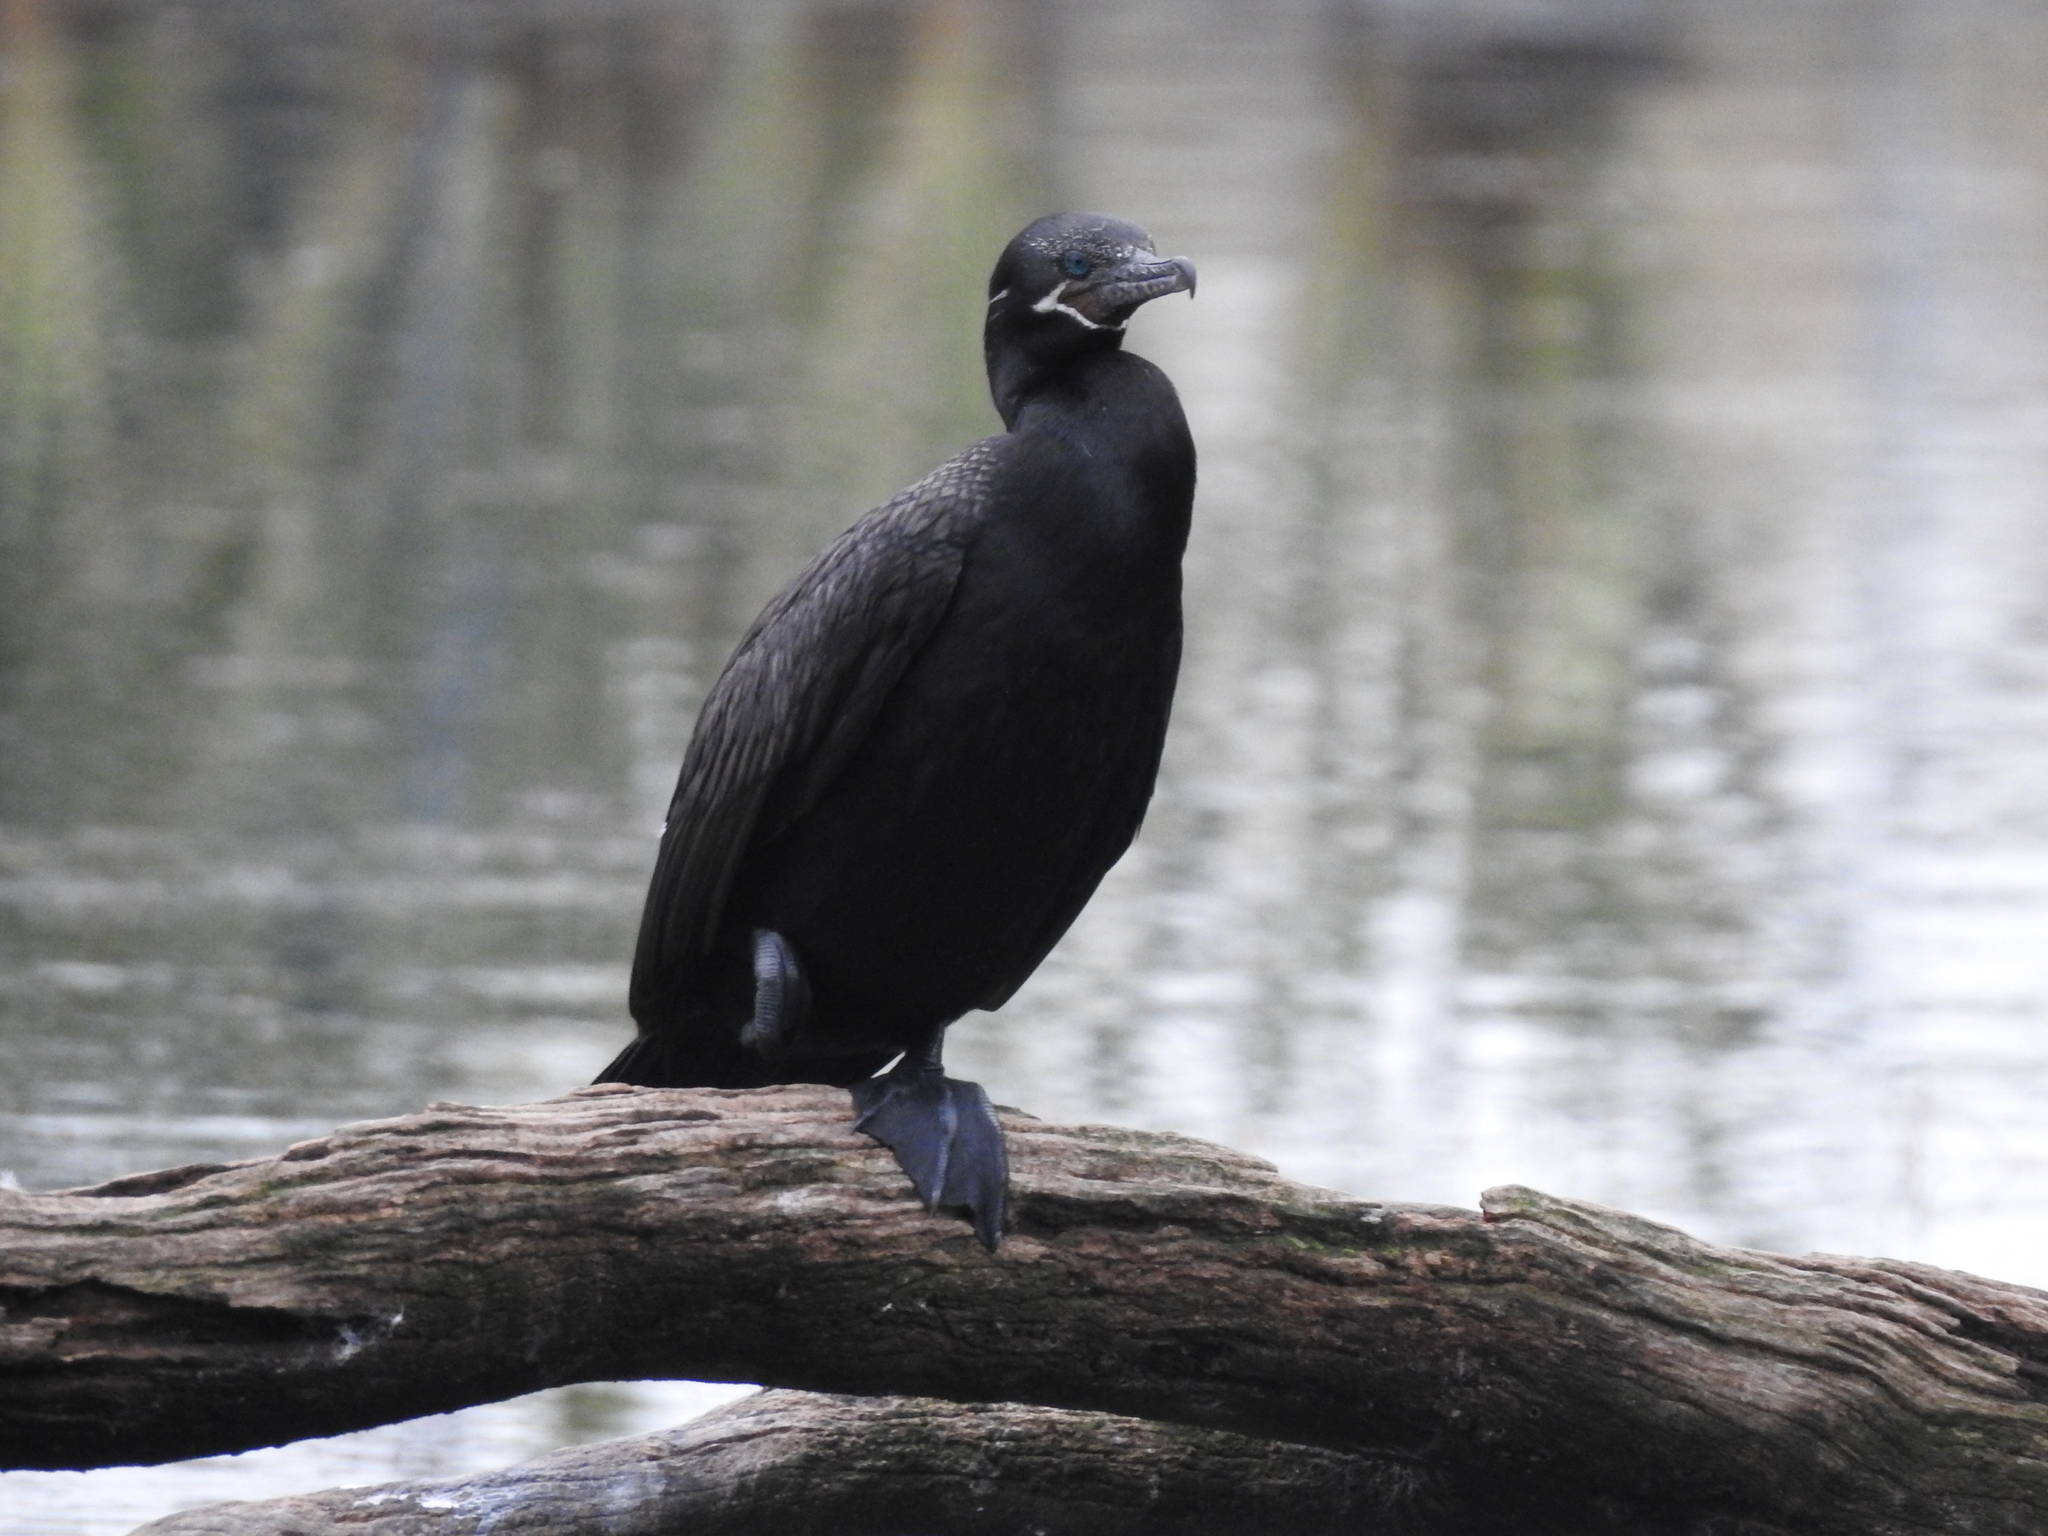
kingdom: Animalia
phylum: Chordata
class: Aves
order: Suliformes
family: Phalacrocoracidae
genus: Phalacrocorax
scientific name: Phalacrocorax brasilianus
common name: Neotropic cormorant
